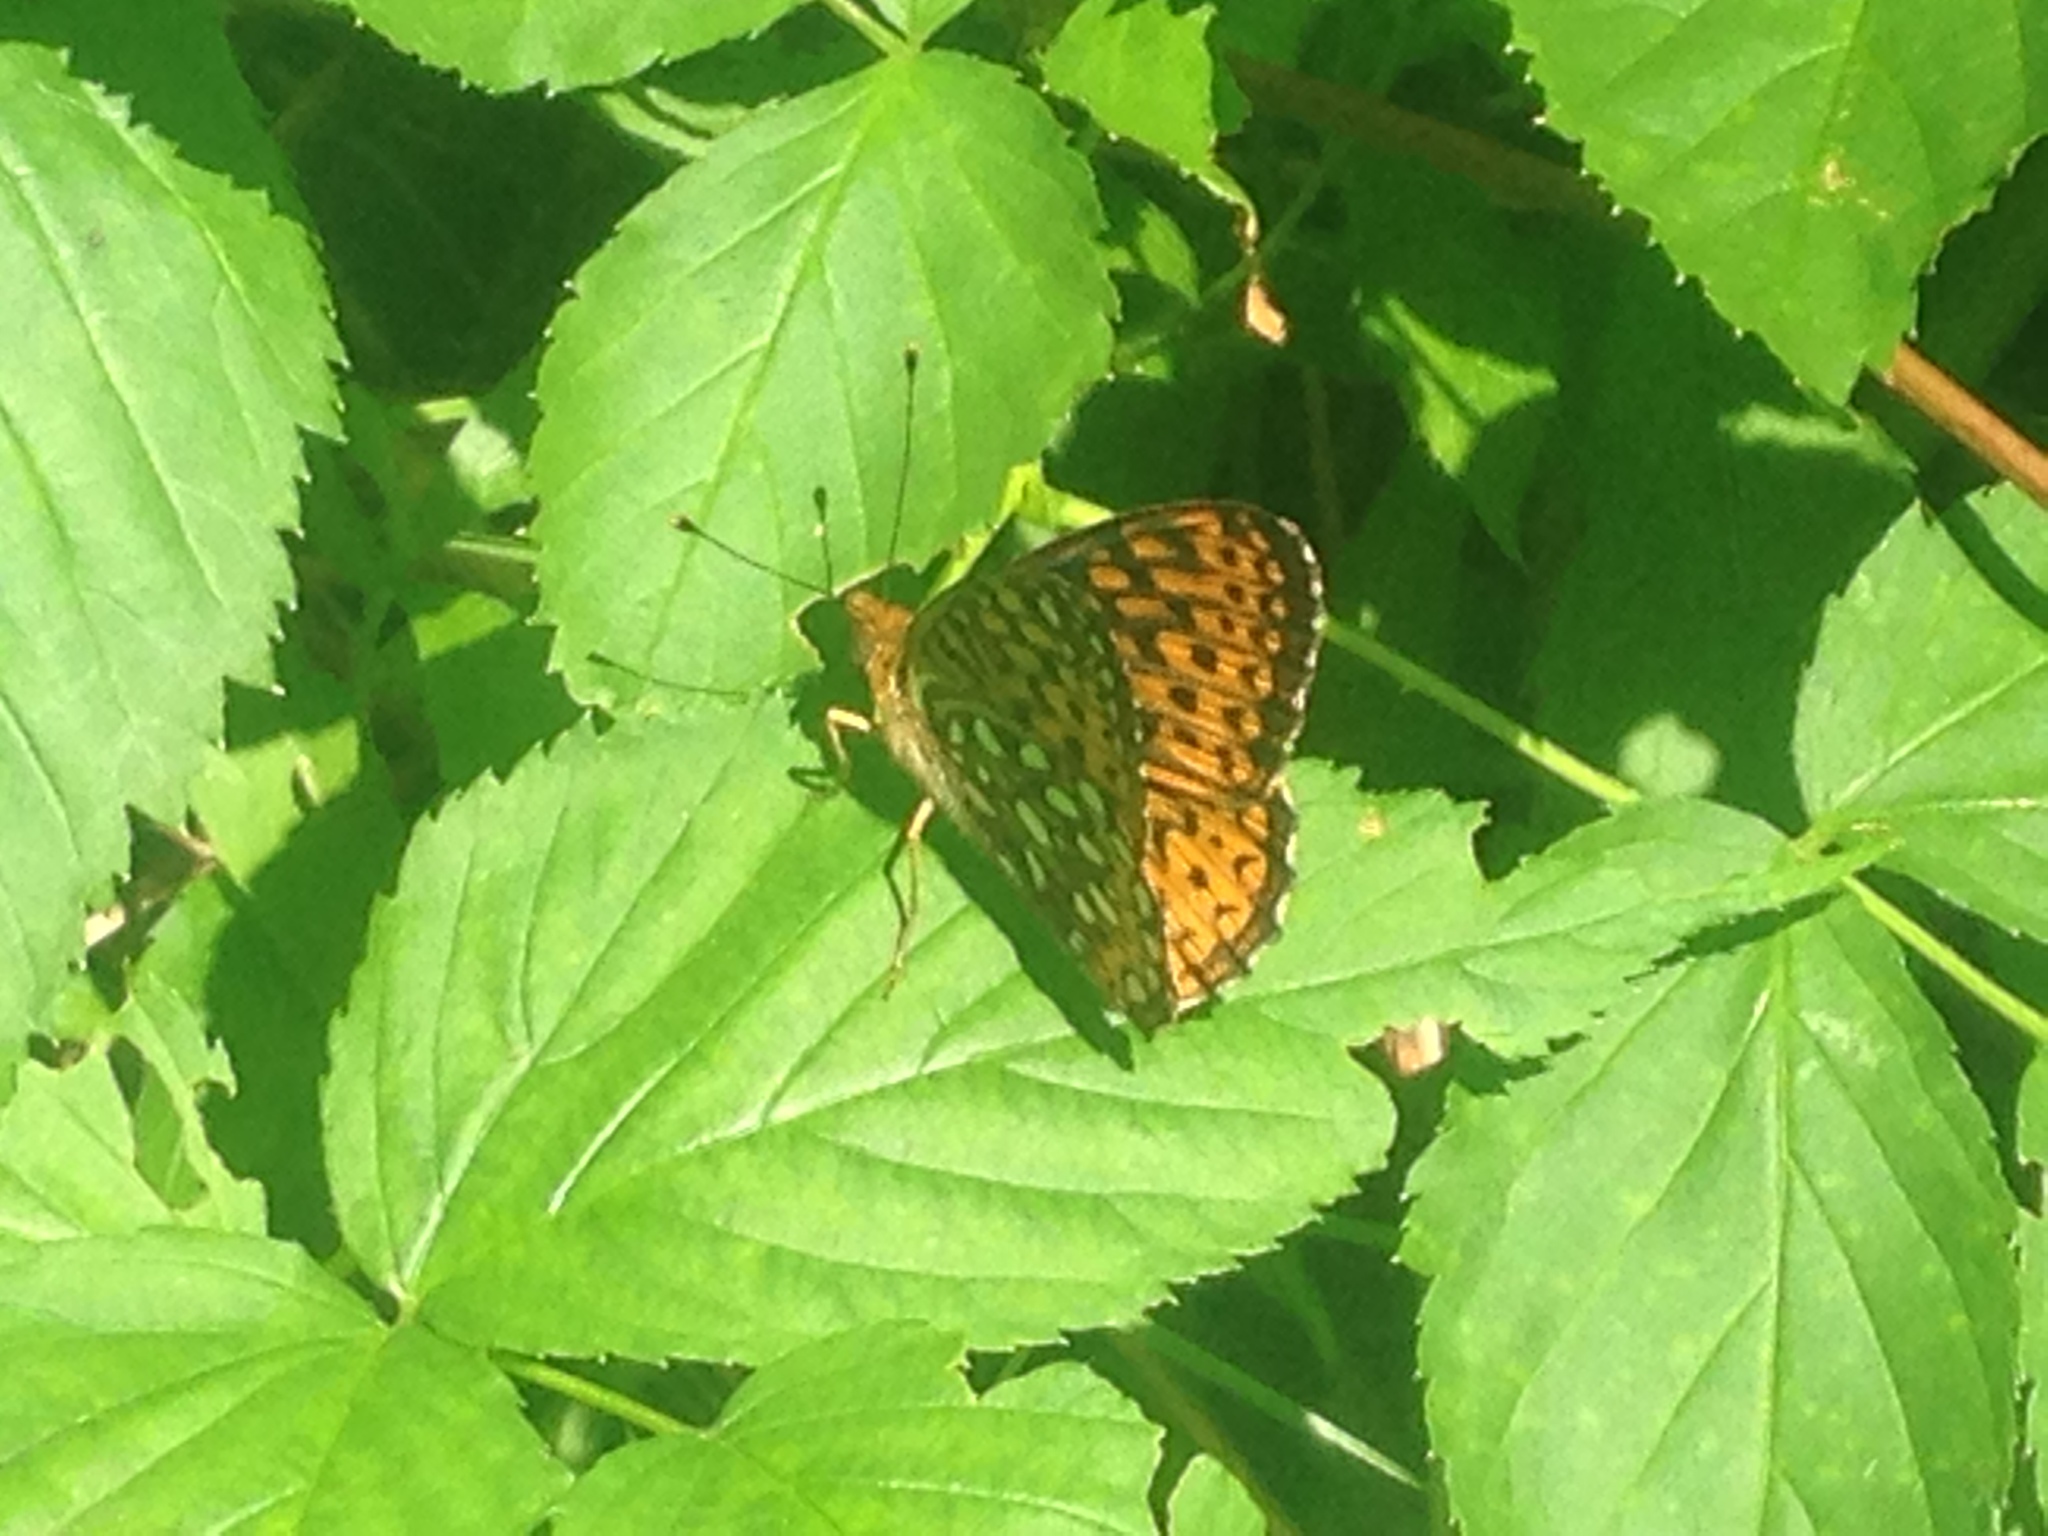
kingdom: Animalia
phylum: Arthropoda
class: Insecta
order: Lepidoptera
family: Nymphalidae
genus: Speyeria
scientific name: Speyeria atlantis
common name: Atlantis fritillary
